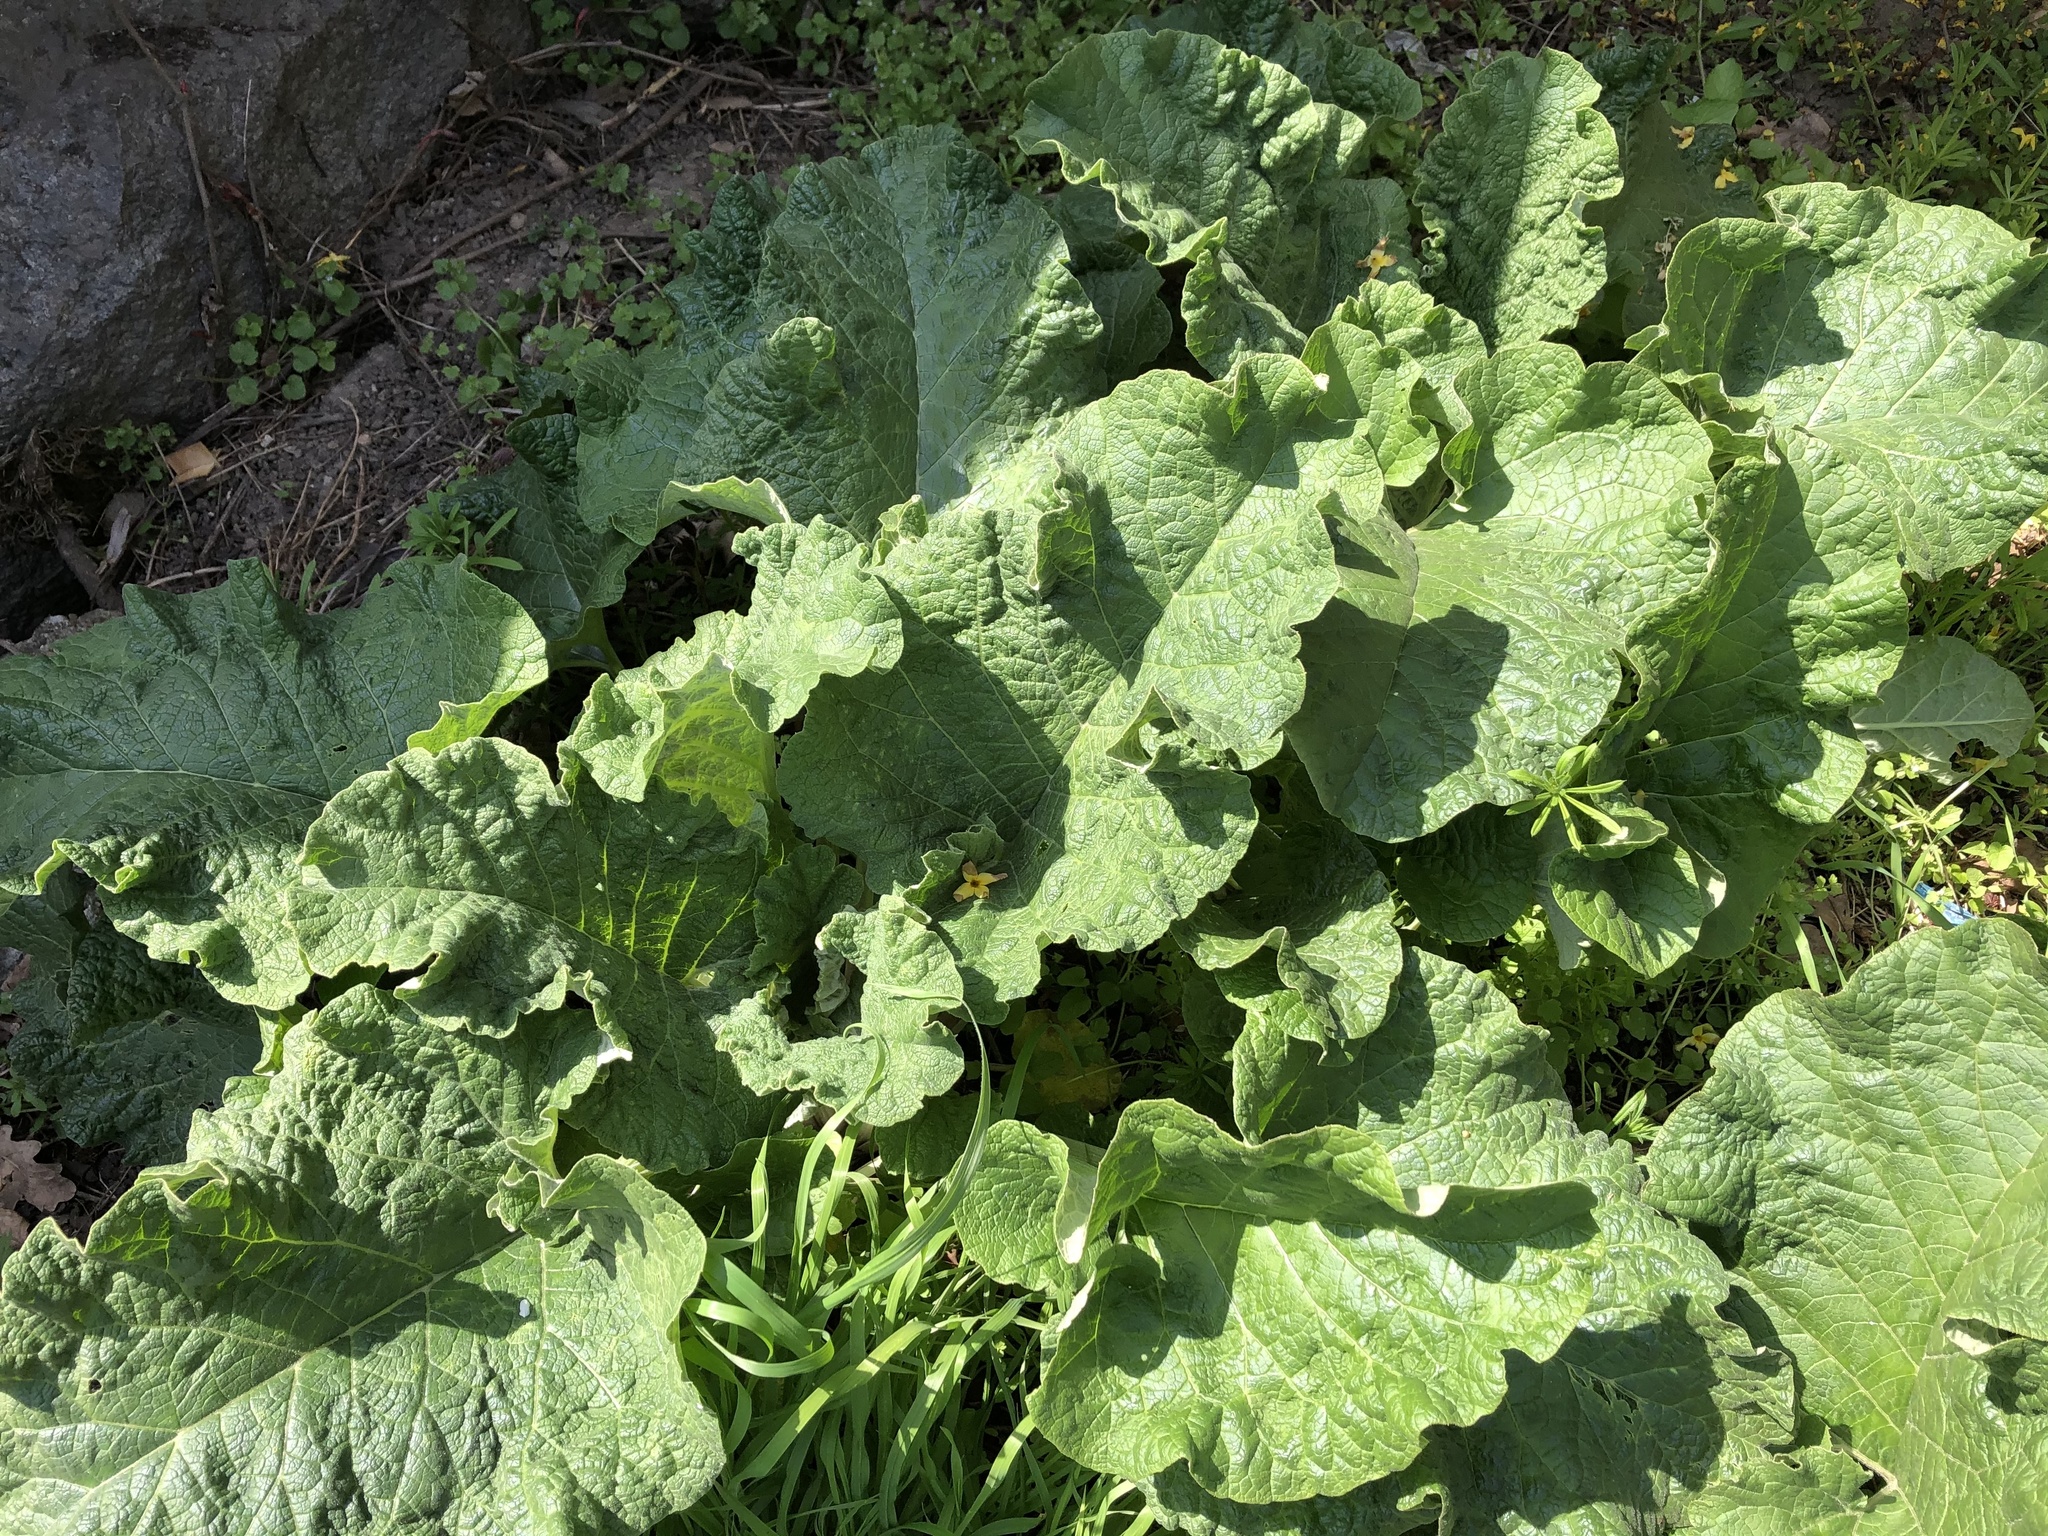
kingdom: Plantae
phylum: Tracheophyta
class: Magnoliopsida
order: Asterales
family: Asteraceae
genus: Arctium
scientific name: Arctium
